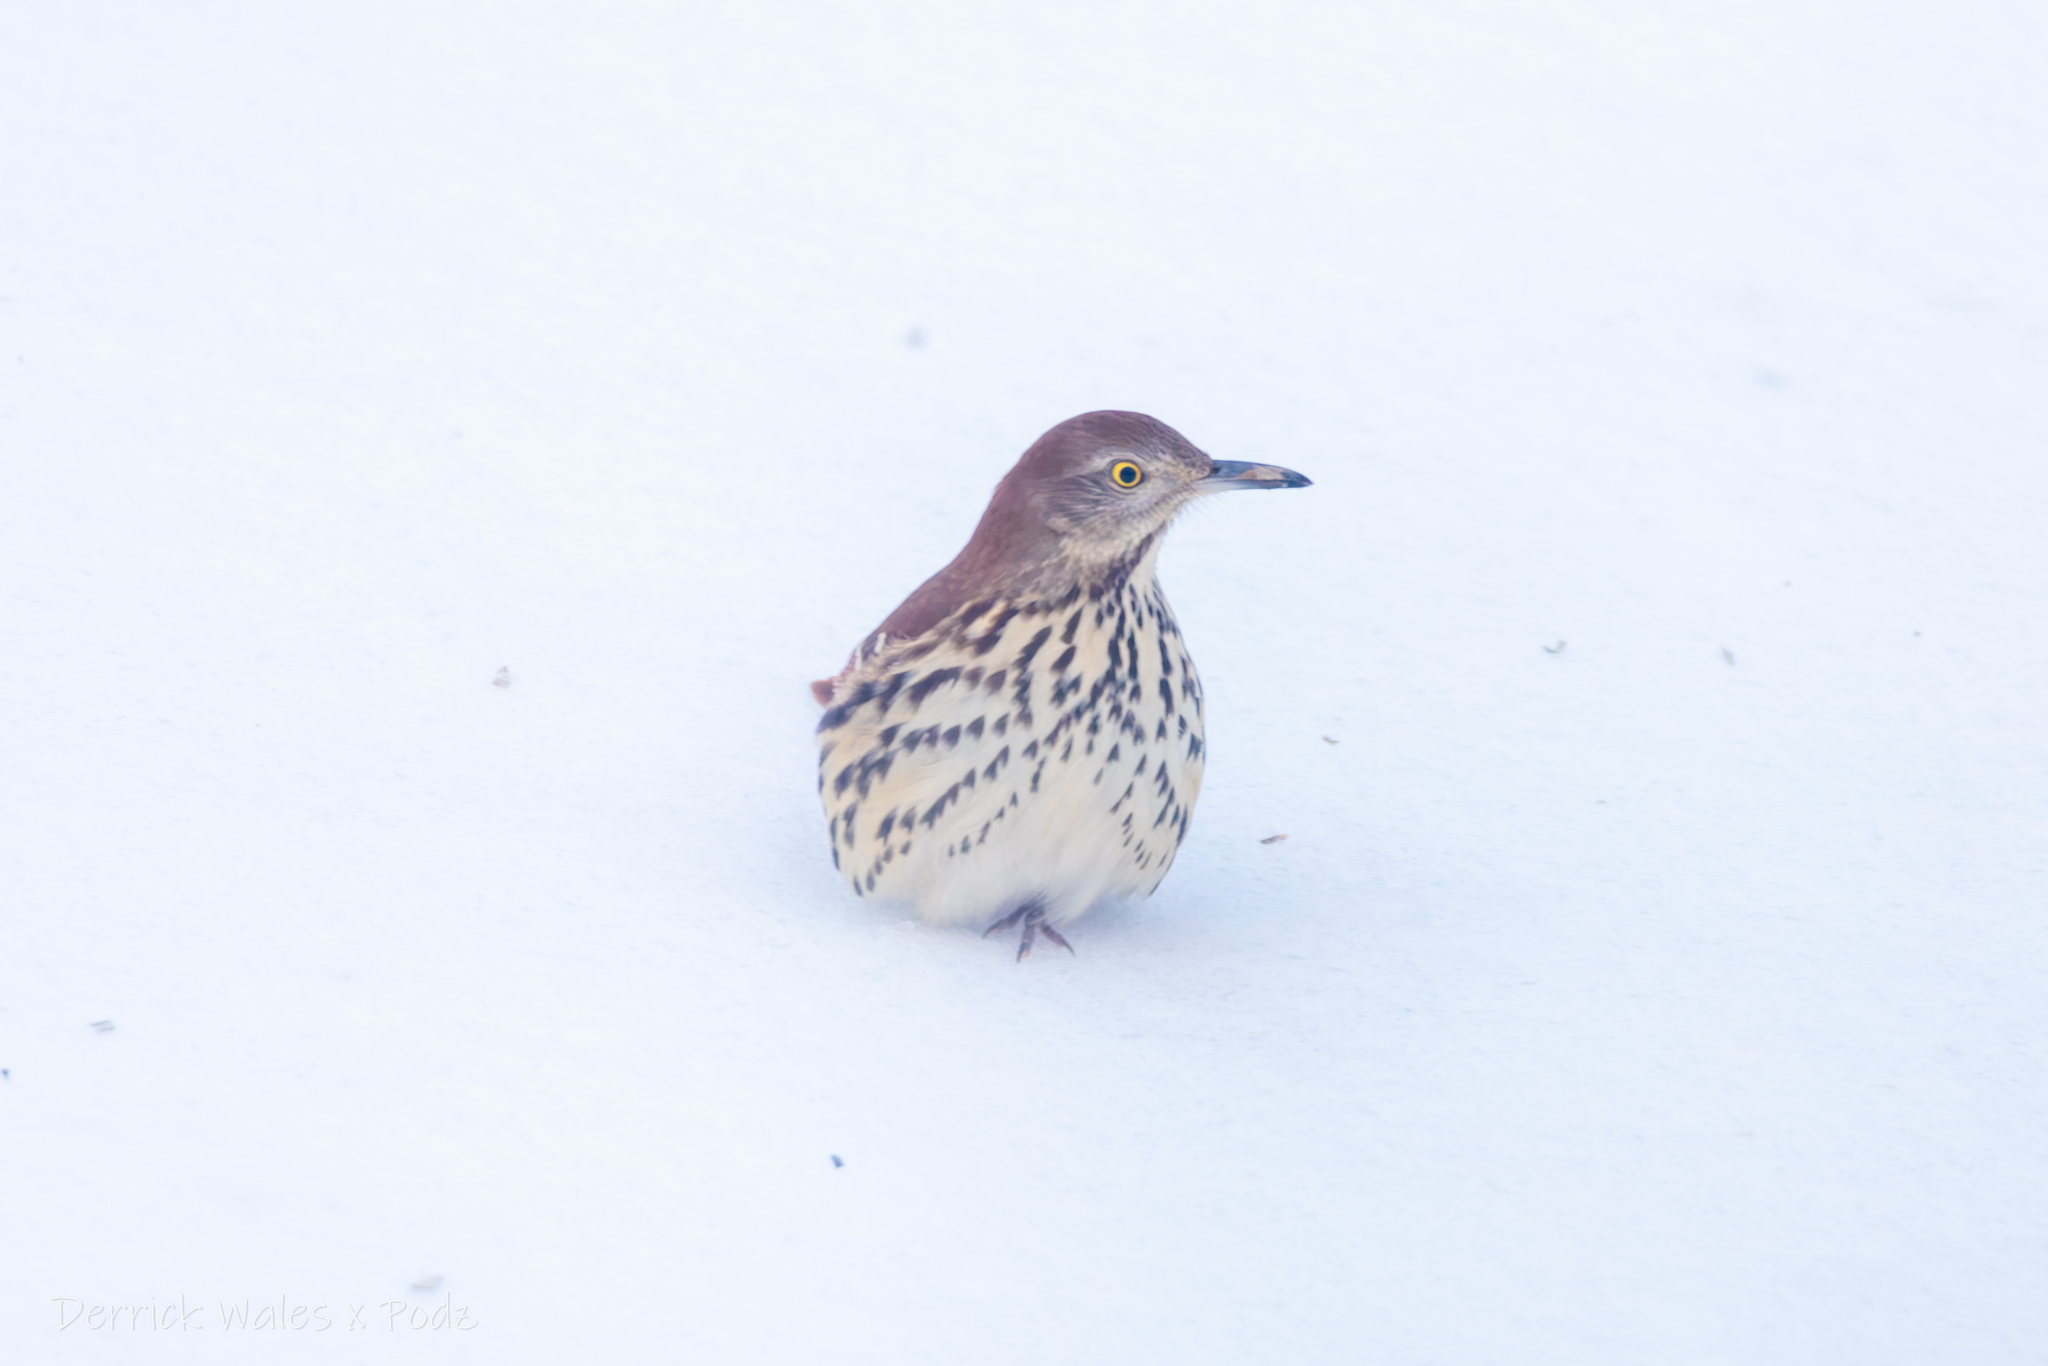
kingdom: Animalia
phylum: Chordata
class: Aves
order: Passeriformes
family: Mimidae
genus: Toxostoma
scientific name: Toxostoma rufum
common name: Brown thrasher
